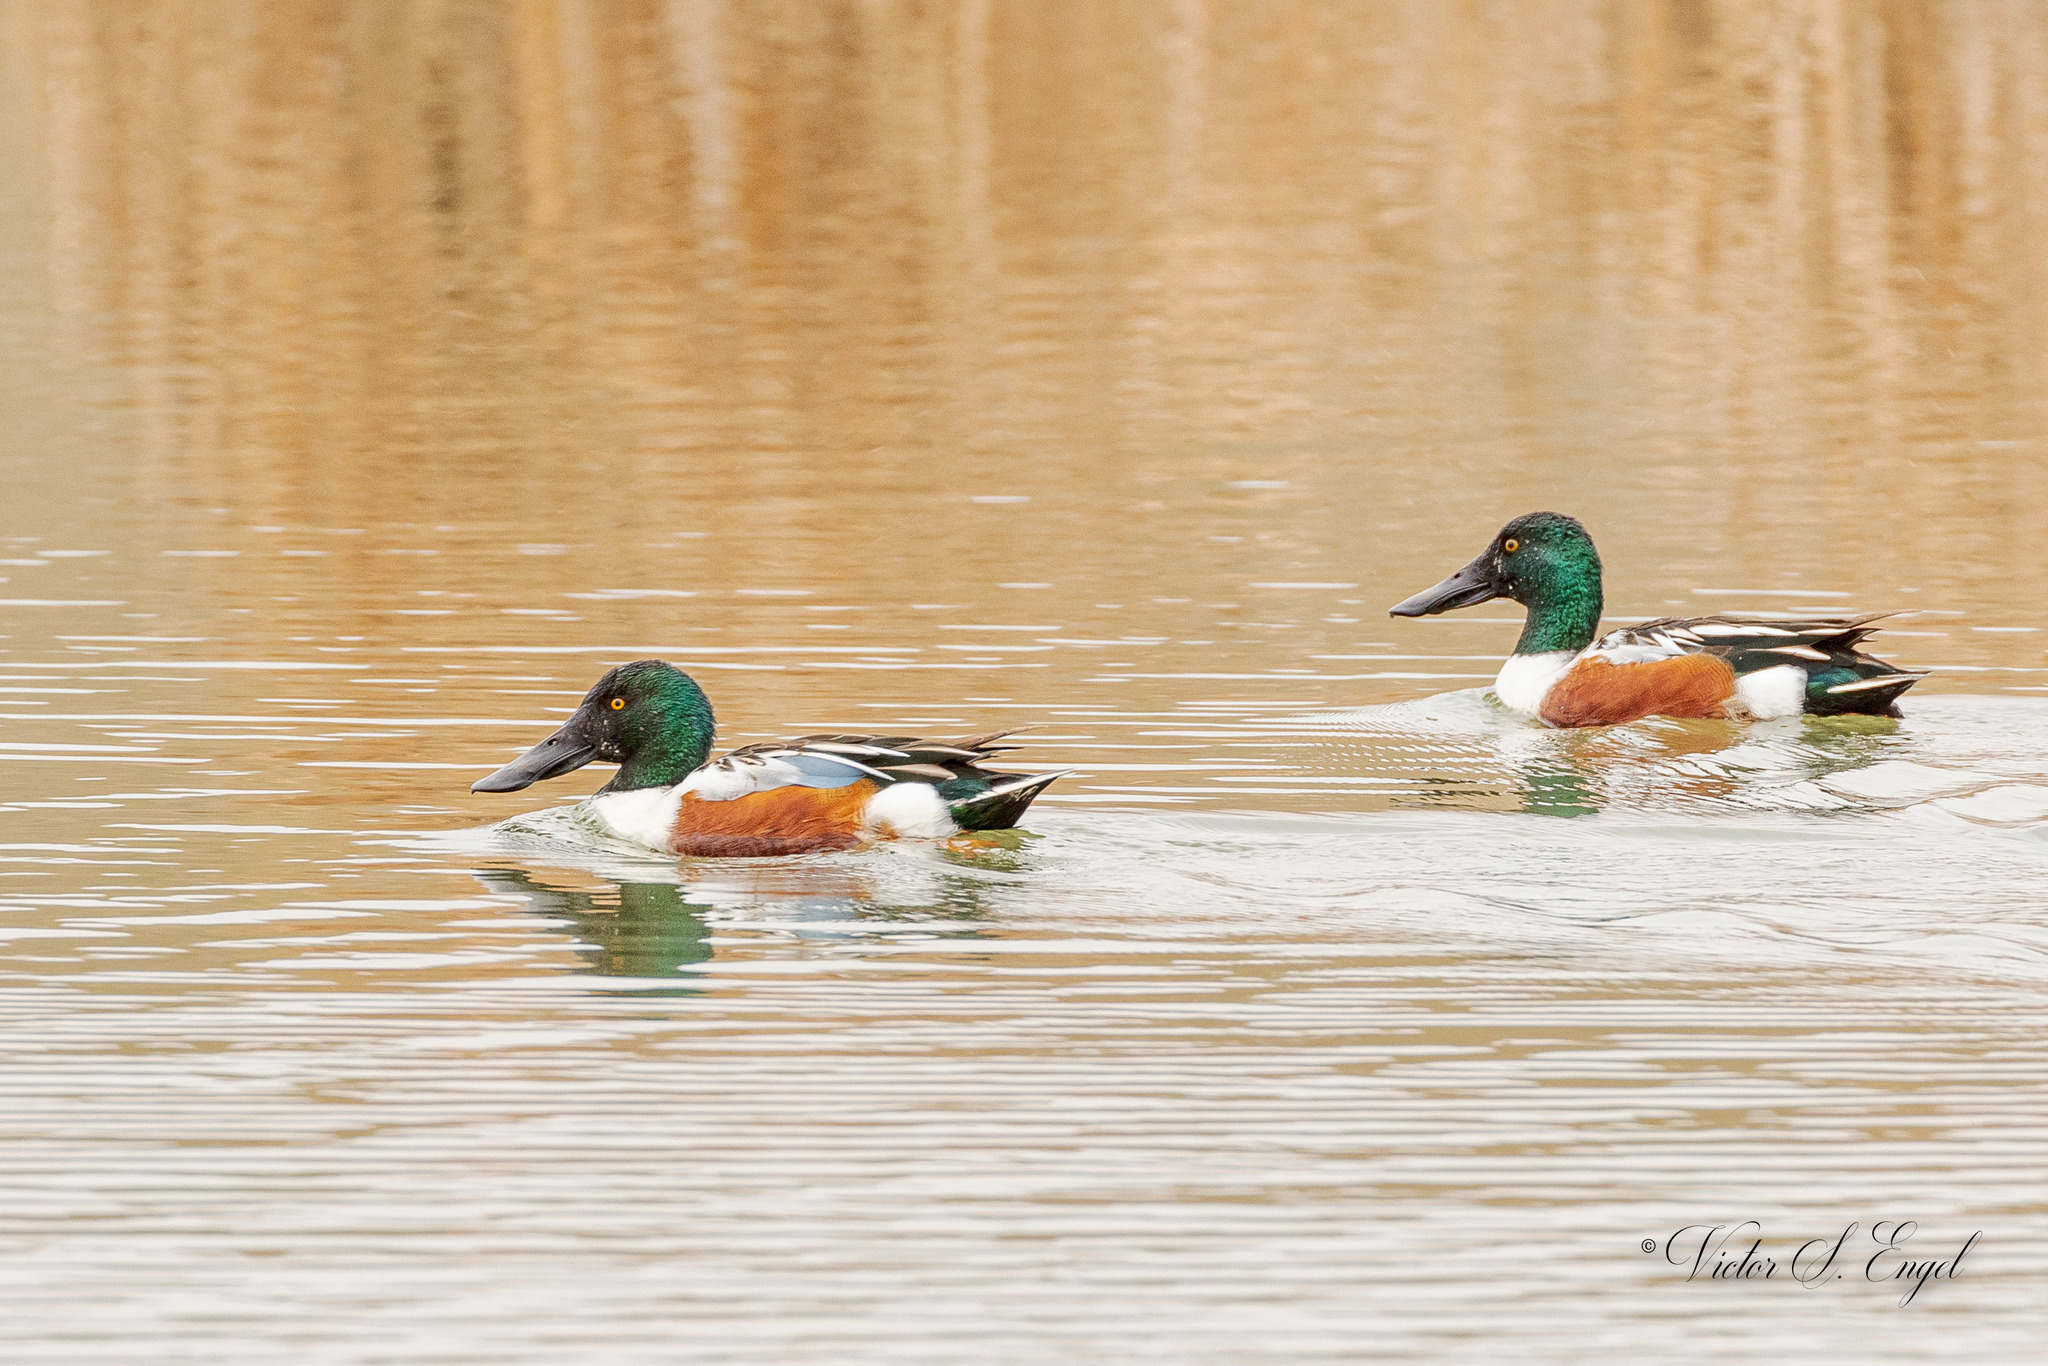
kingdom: Animalia
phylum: Chordata
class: Aves
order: Anseriformes
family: Anatidae
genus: Spatula
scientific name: Spatula clypeata
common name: Northern shoveler
